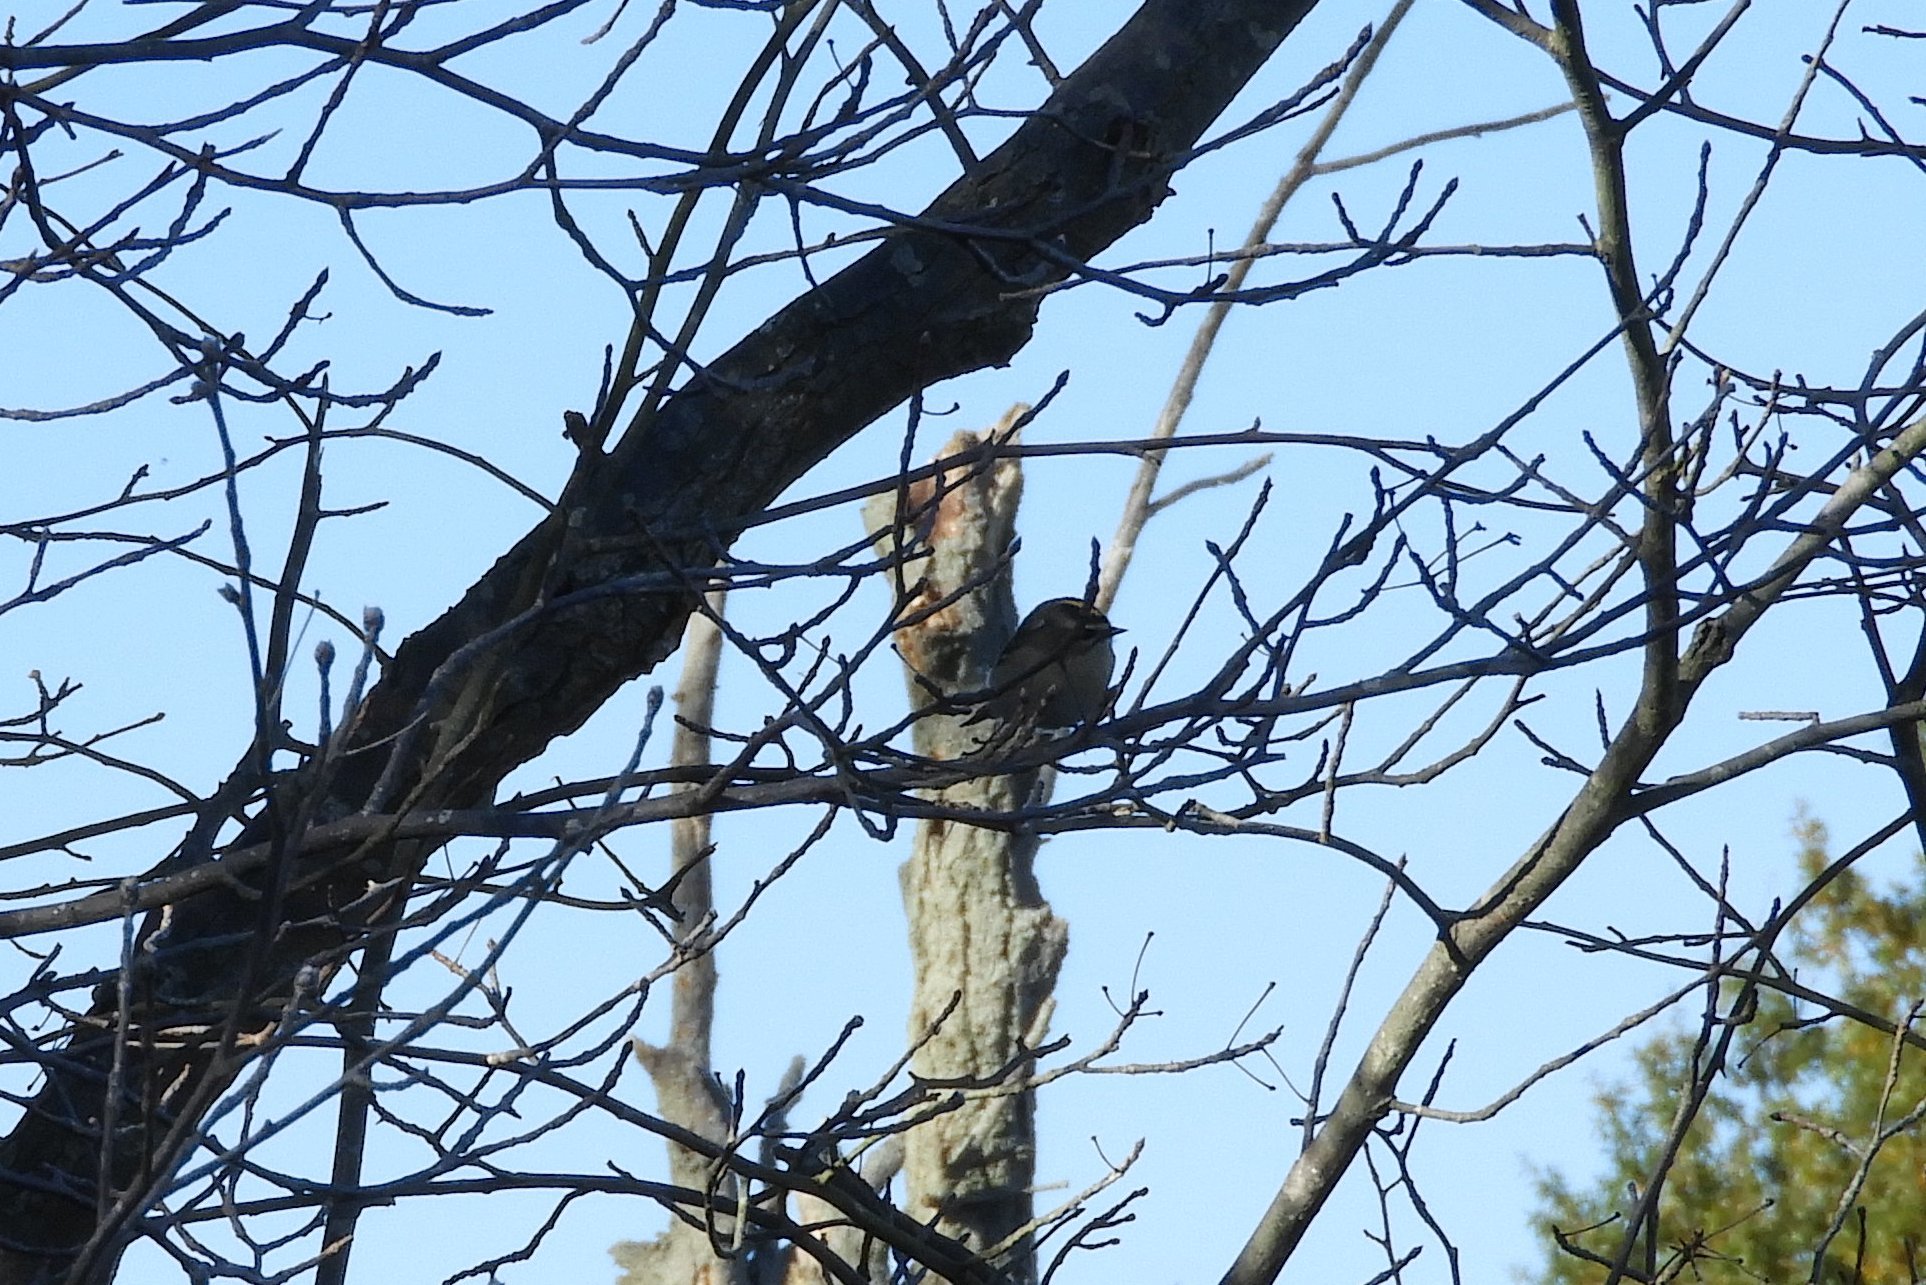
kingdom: Animalia
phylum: Chordata
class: Aves
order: Passeriformes
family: Regulidae
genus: Regulus
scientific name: Regulus satrapa
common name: Golden-crowned kinglet
